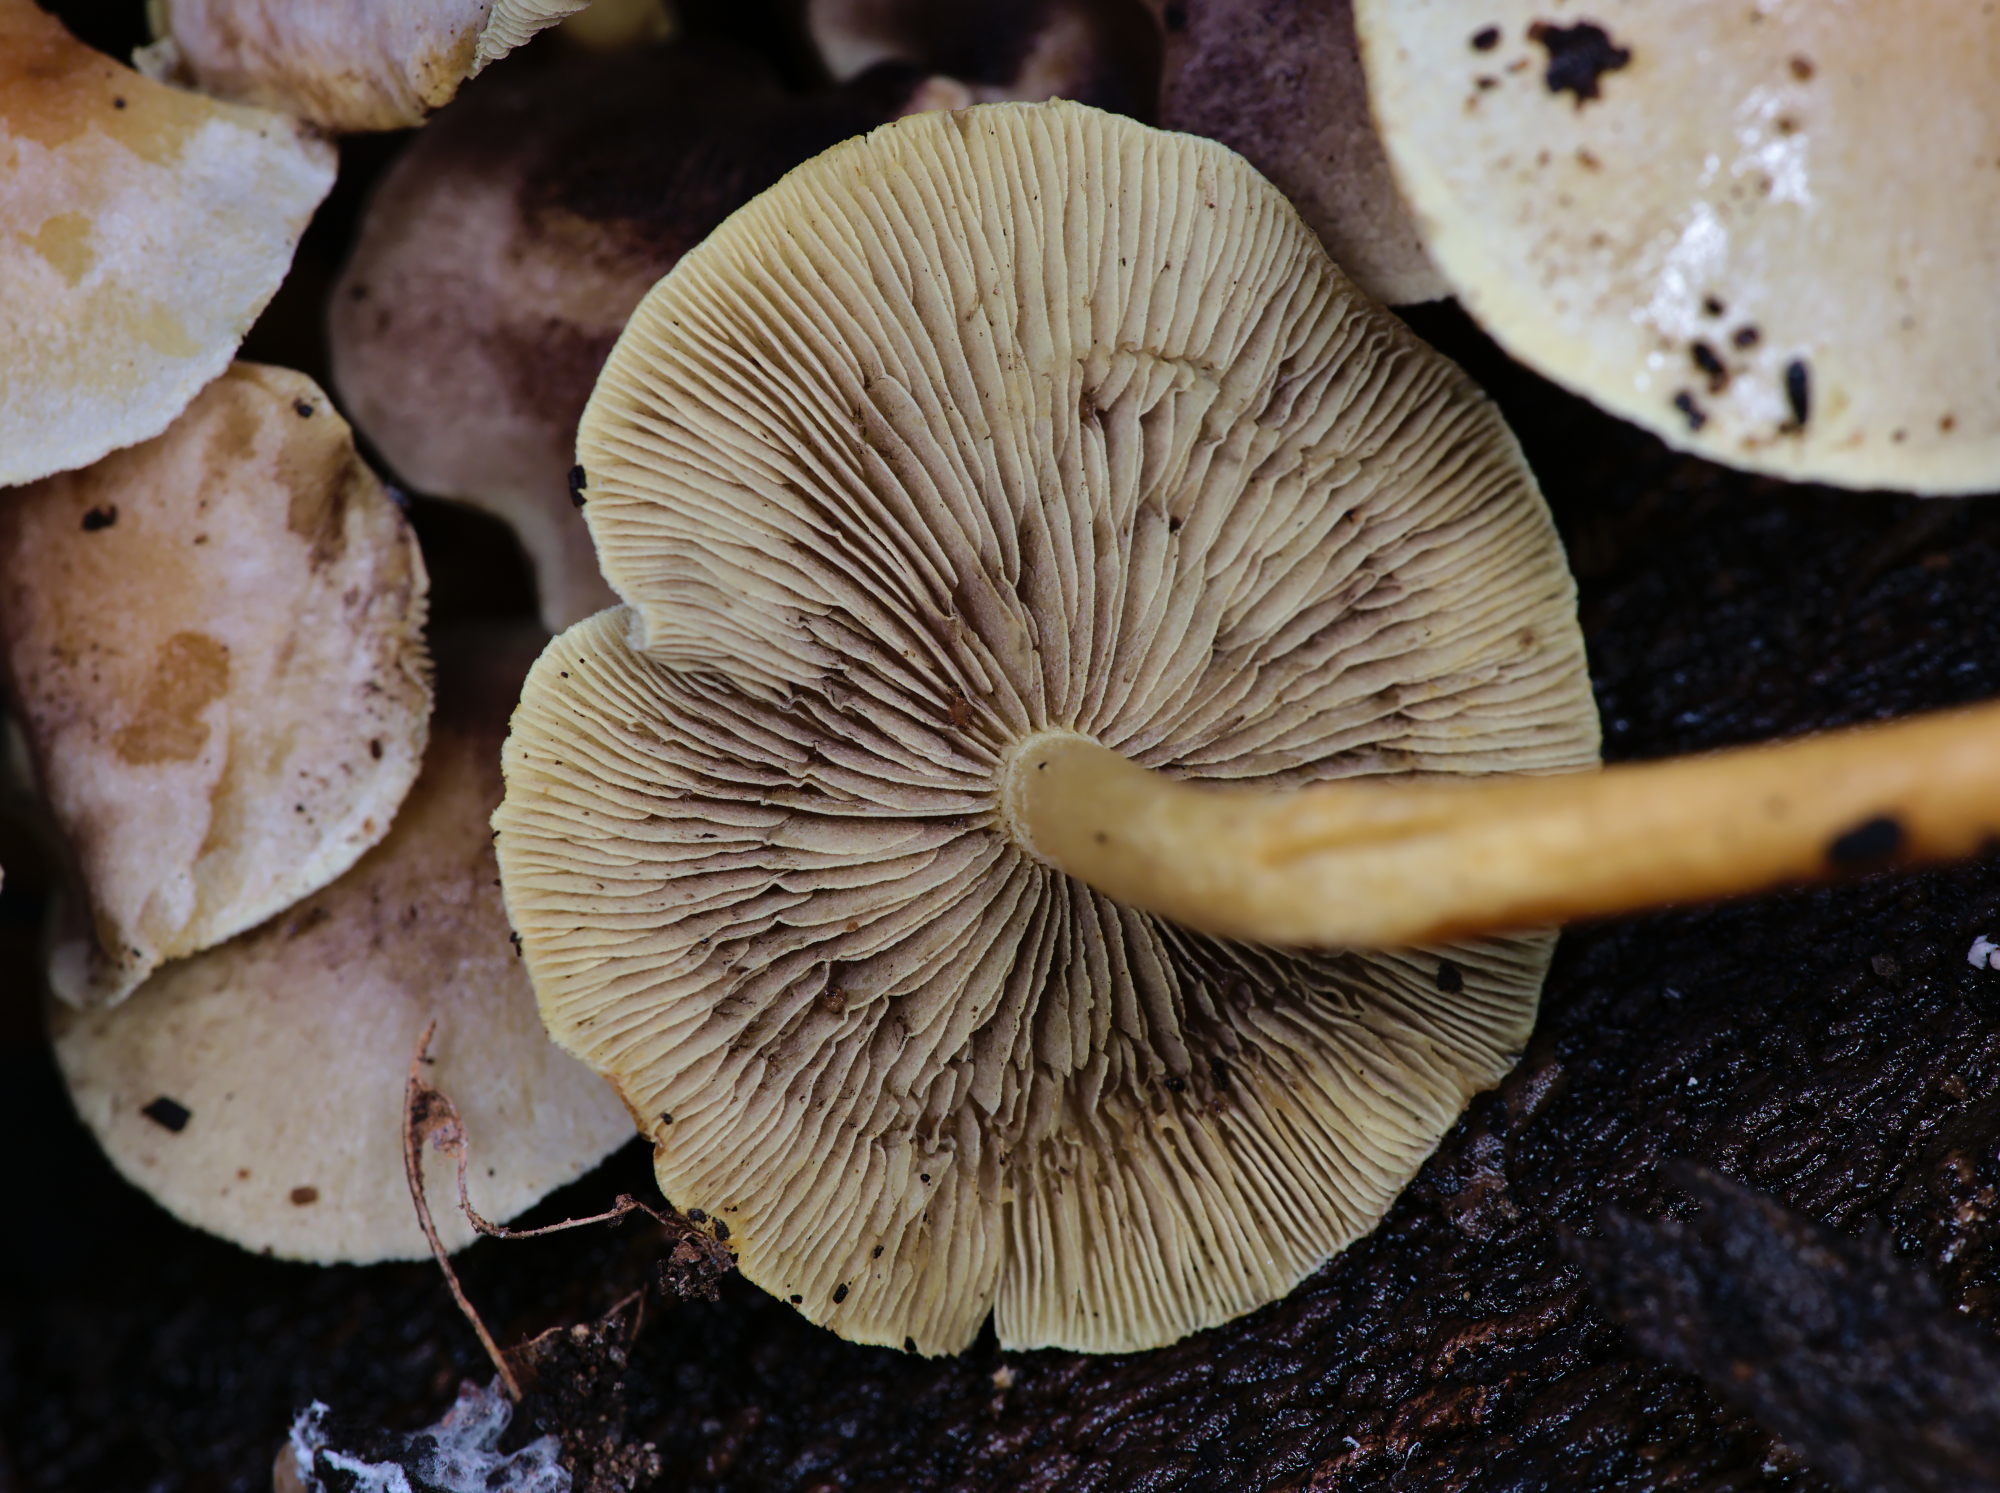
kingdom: Fungi
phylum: Basidiomycota
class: Agaricomycetes
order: Agaricales
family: Strophariaceae
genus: Hypholoma
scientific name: Hypholoma fasciculare
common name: Sulphur tuft
